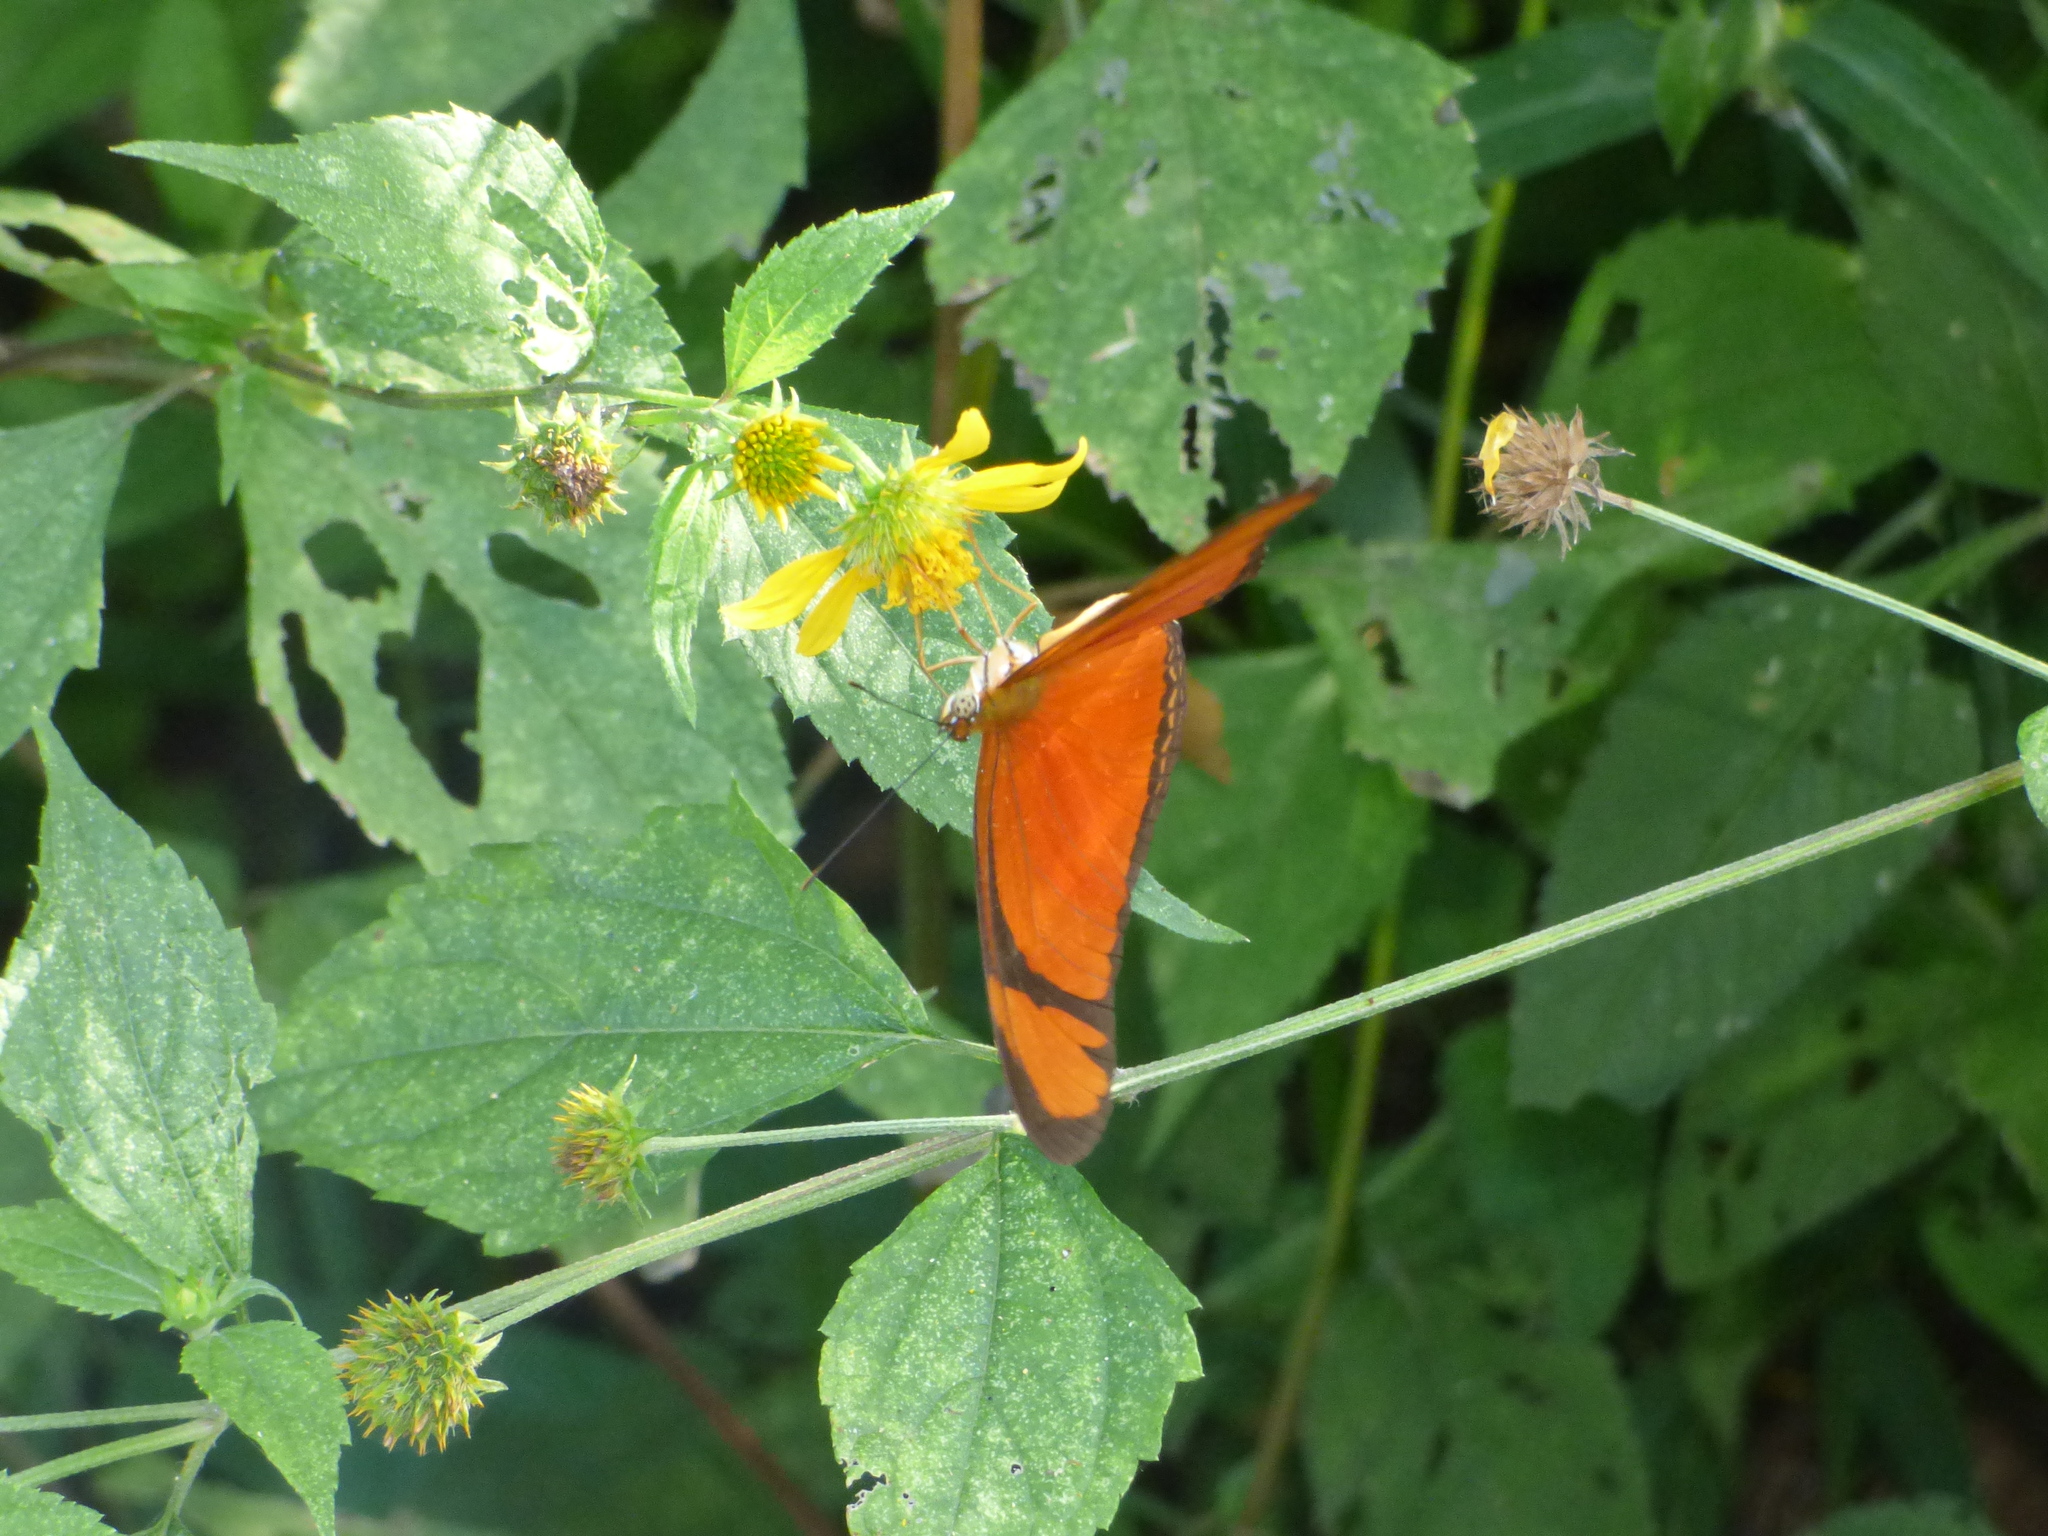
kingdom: Animalia
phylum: Arthropoda
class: Insecta
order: Lepidoptera
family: Nymphalidae
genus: Dryas
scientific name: Dryas iulia
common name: Flambeau
